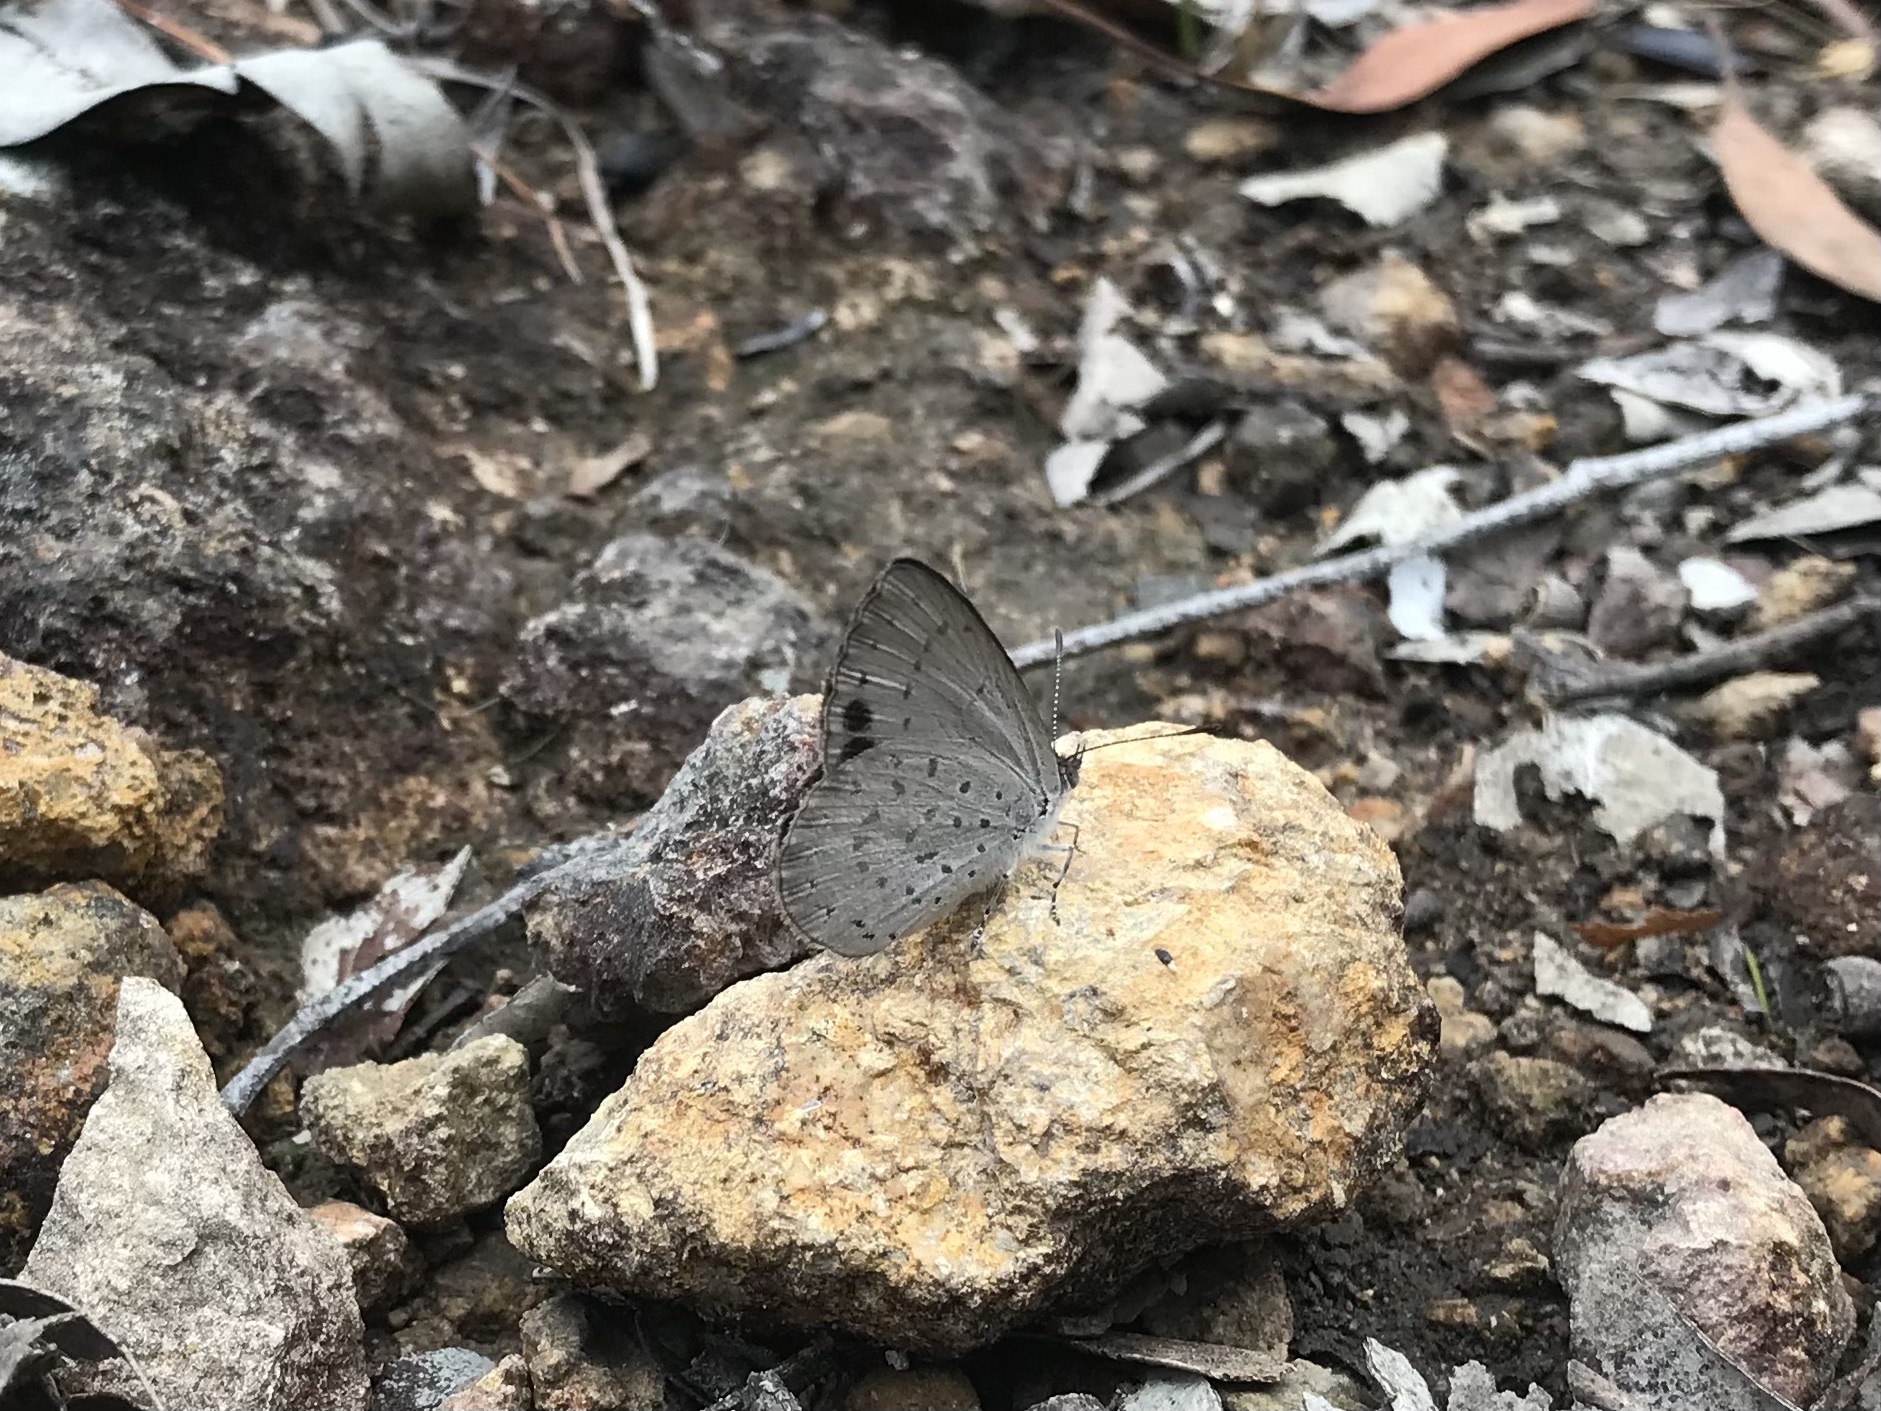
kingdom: Animalia
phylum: Arthropoda
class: Insecta
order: Lepidoptera
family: Lycaenidae
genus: Candalides
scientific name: Candalides
